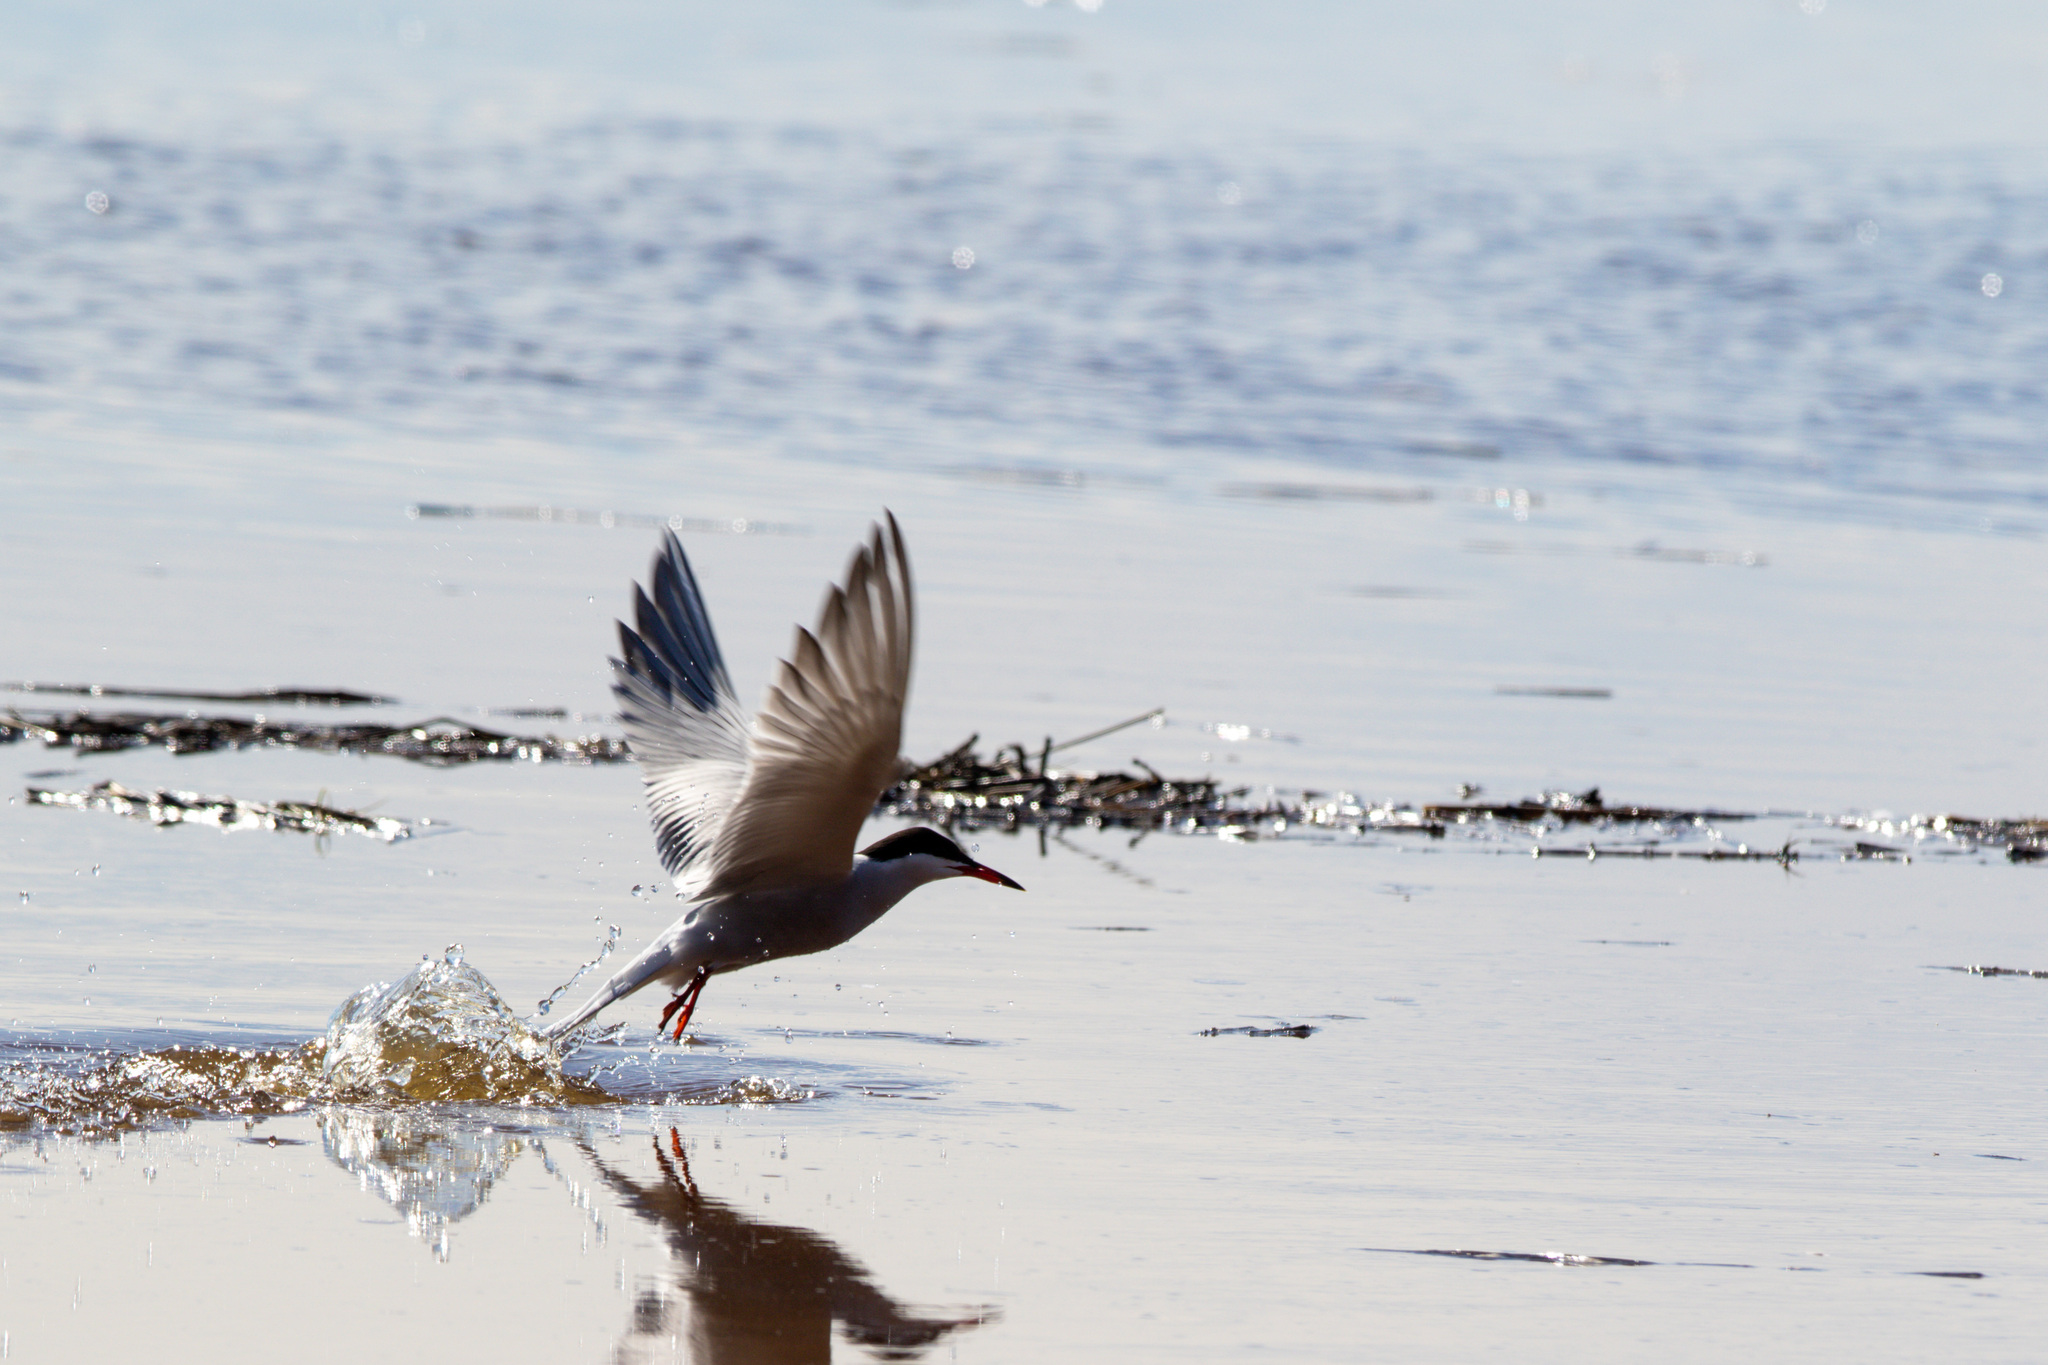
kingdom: Animalia
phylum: Chordata
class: Aves
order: Charadriiformes
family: Laridae
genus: Sterna
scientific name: Sterna hirundo
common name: Common tern
